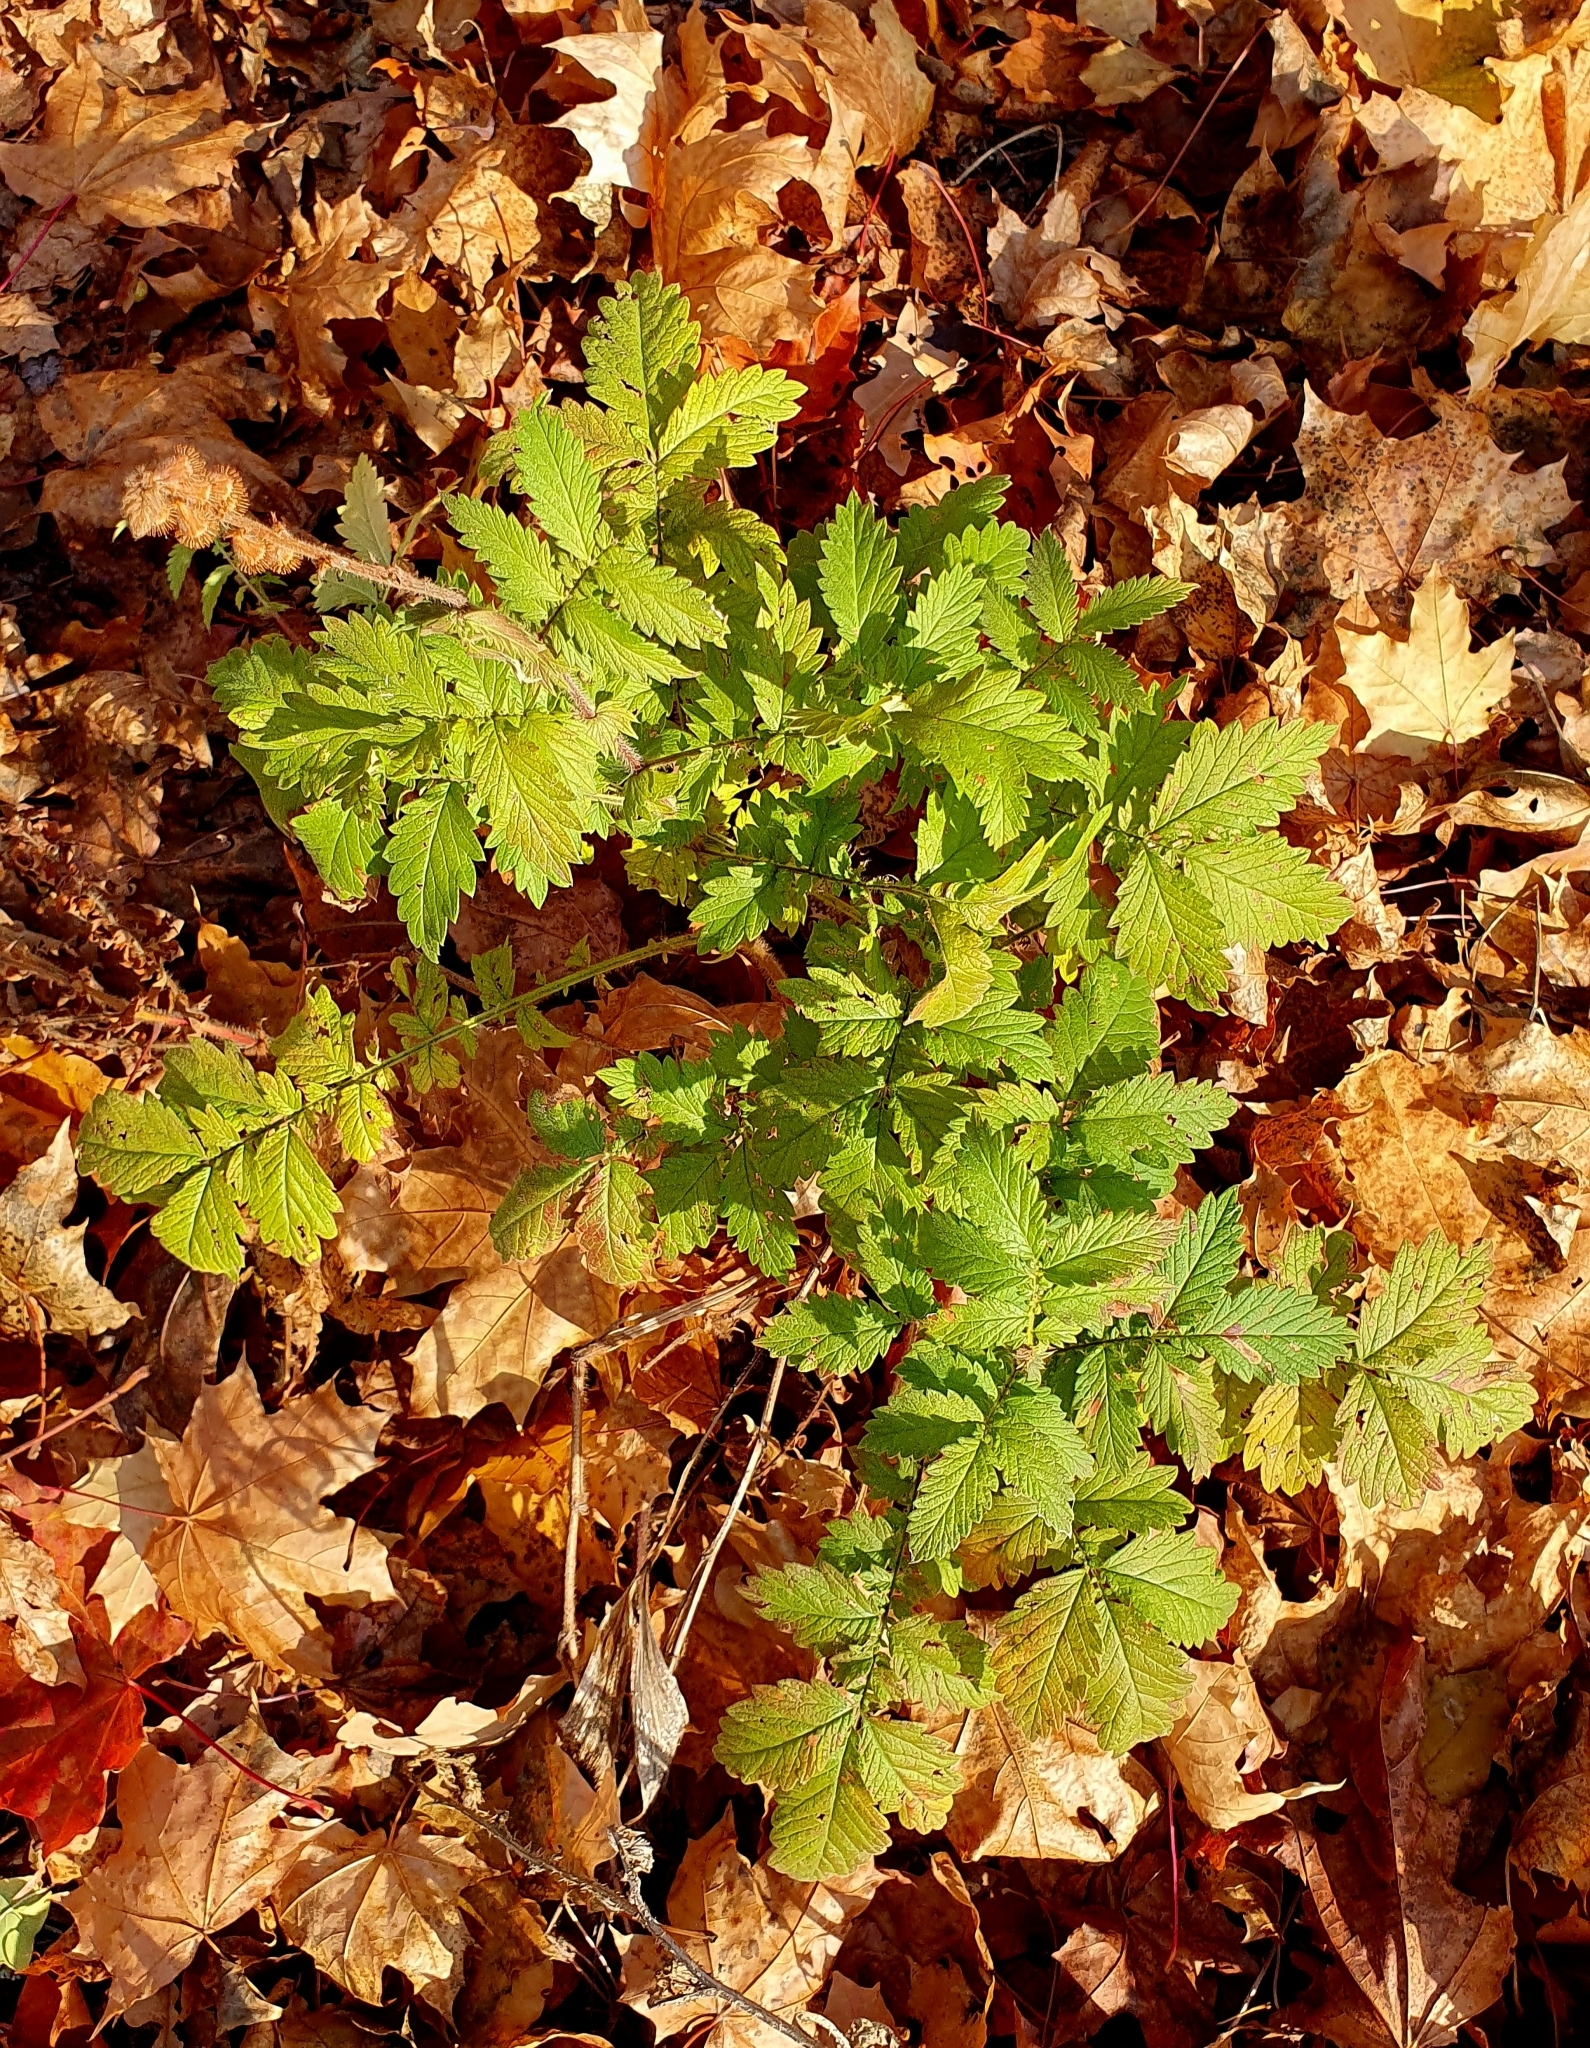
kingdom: Plantae
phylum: Tracheophyta
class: Magnoliopsida
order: Rosales
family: Rosaceae
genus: Agrimonia
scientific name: Agrimonia eupatoria
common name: Agrimony
